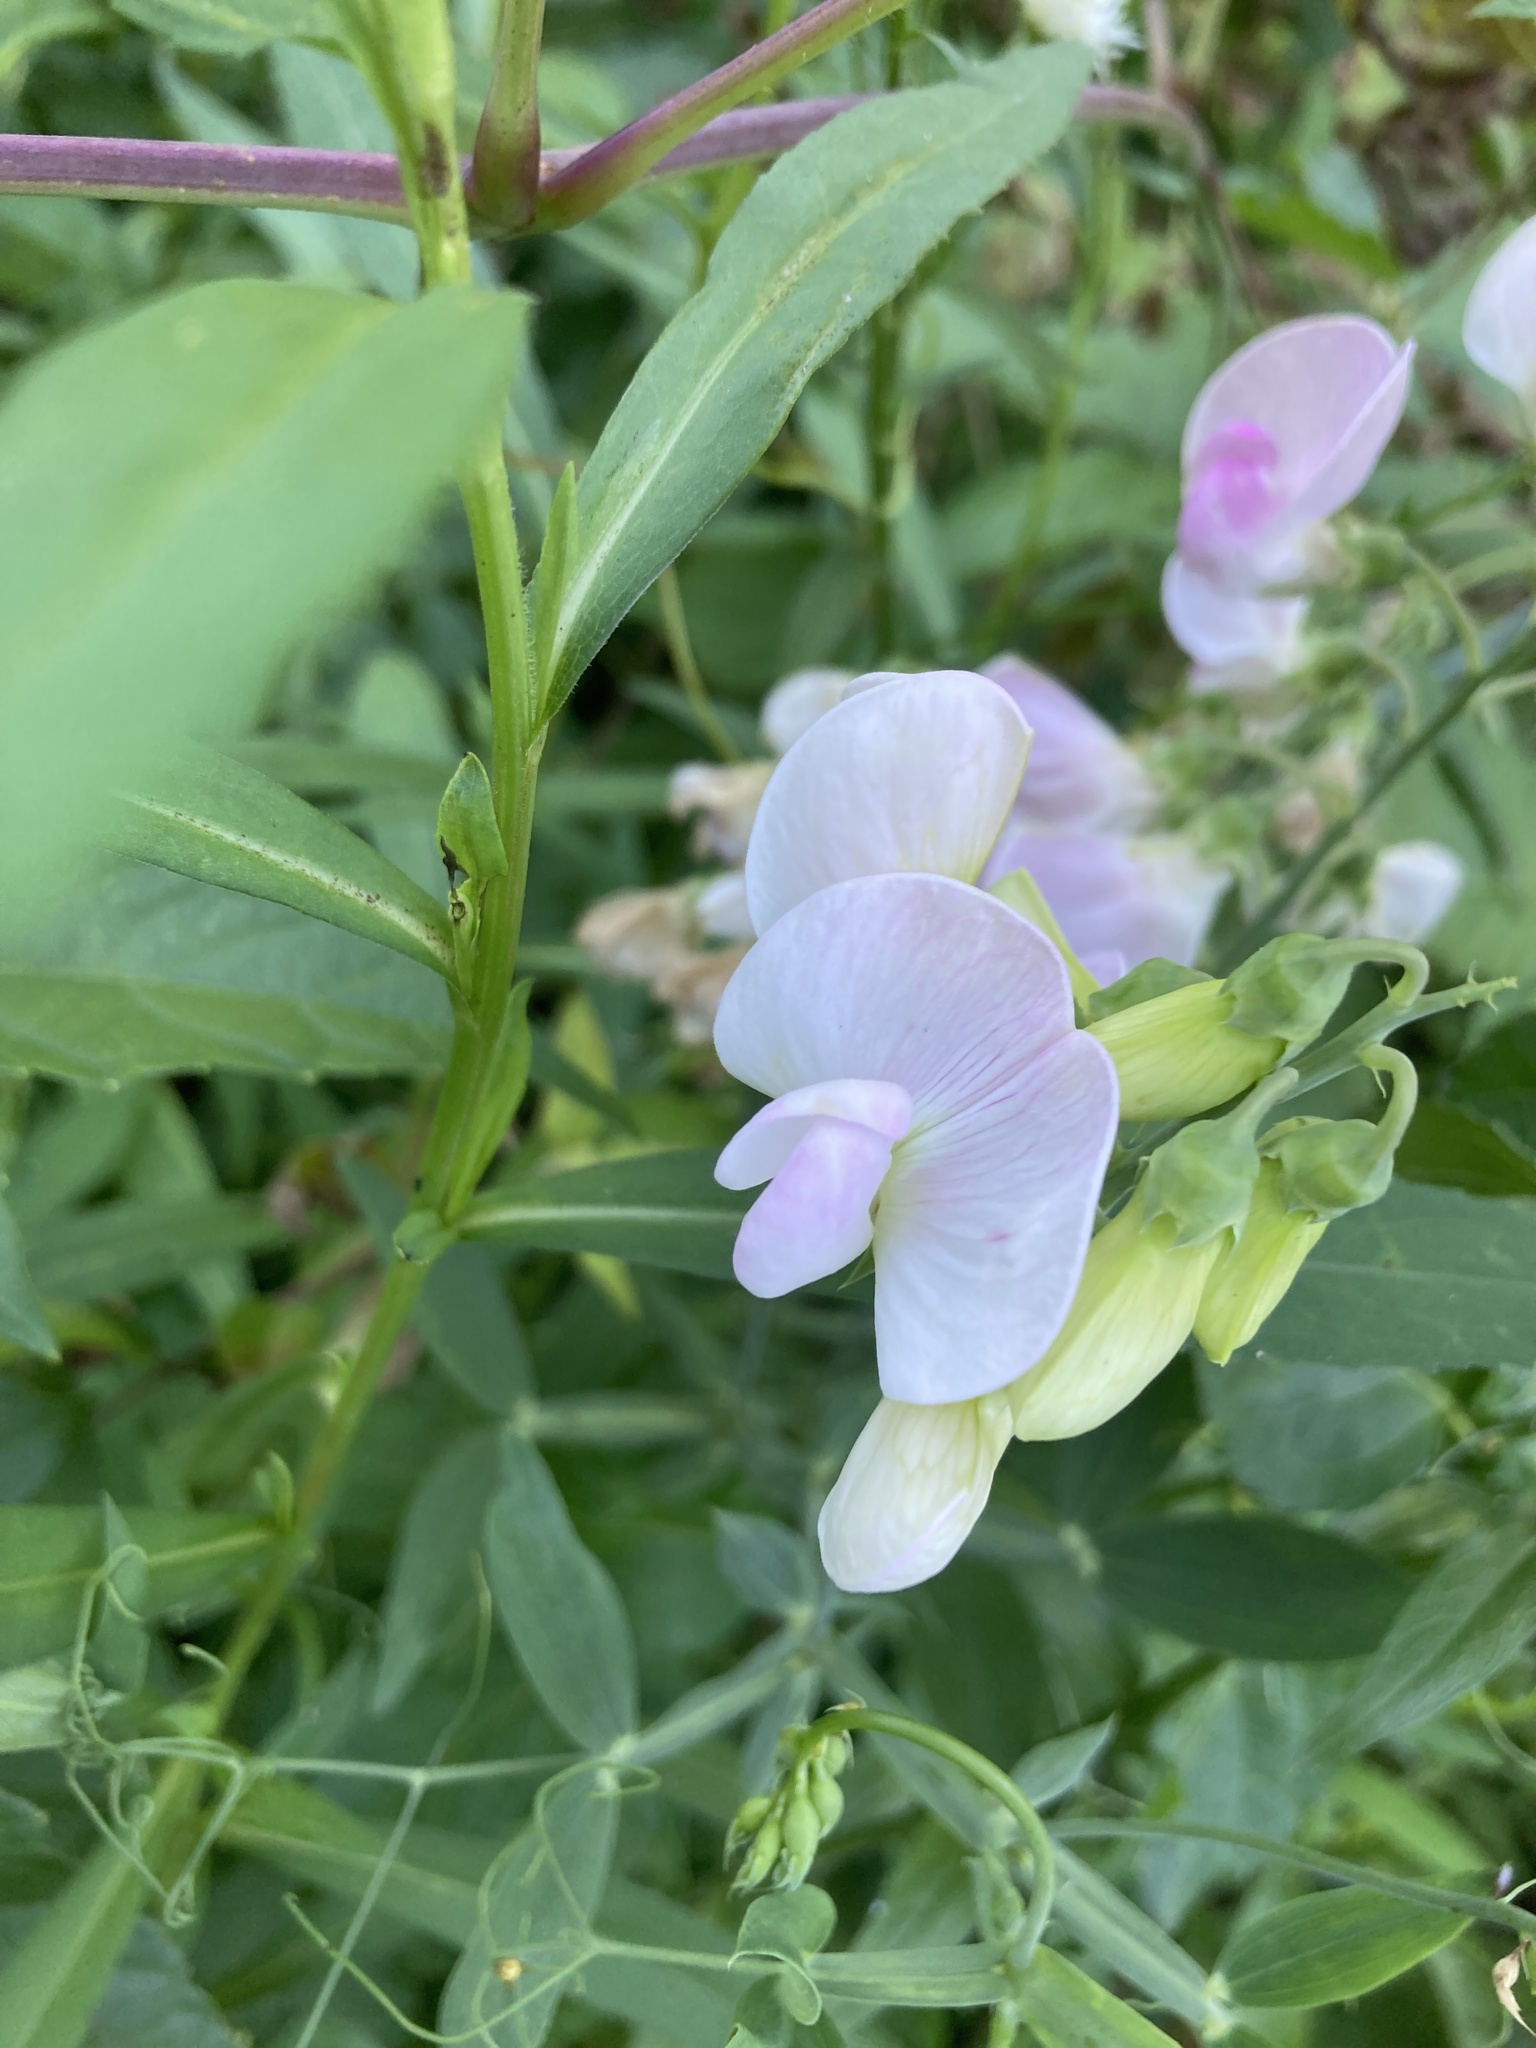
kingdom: Plantae
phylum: Tracheophyta
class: Magnoliopsida
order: Fabales
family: Fabaceae
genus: Lathyrus
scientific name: Lathyrus latifolius
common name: Perennial pea
